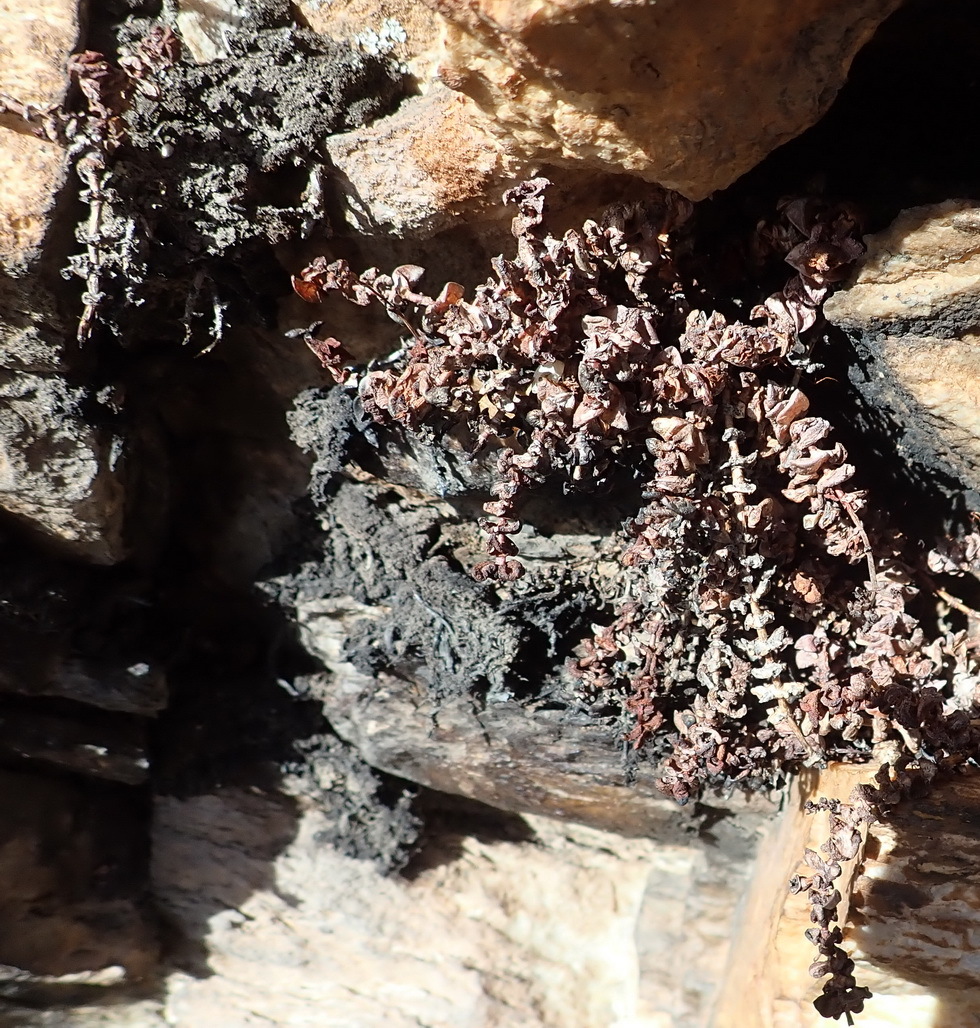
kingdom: Plantae
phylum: Tracheophyta
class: Magnoliopsida
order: Saxifragales
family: Crassulaceae
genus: Crassula
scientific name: Crassula perforata
